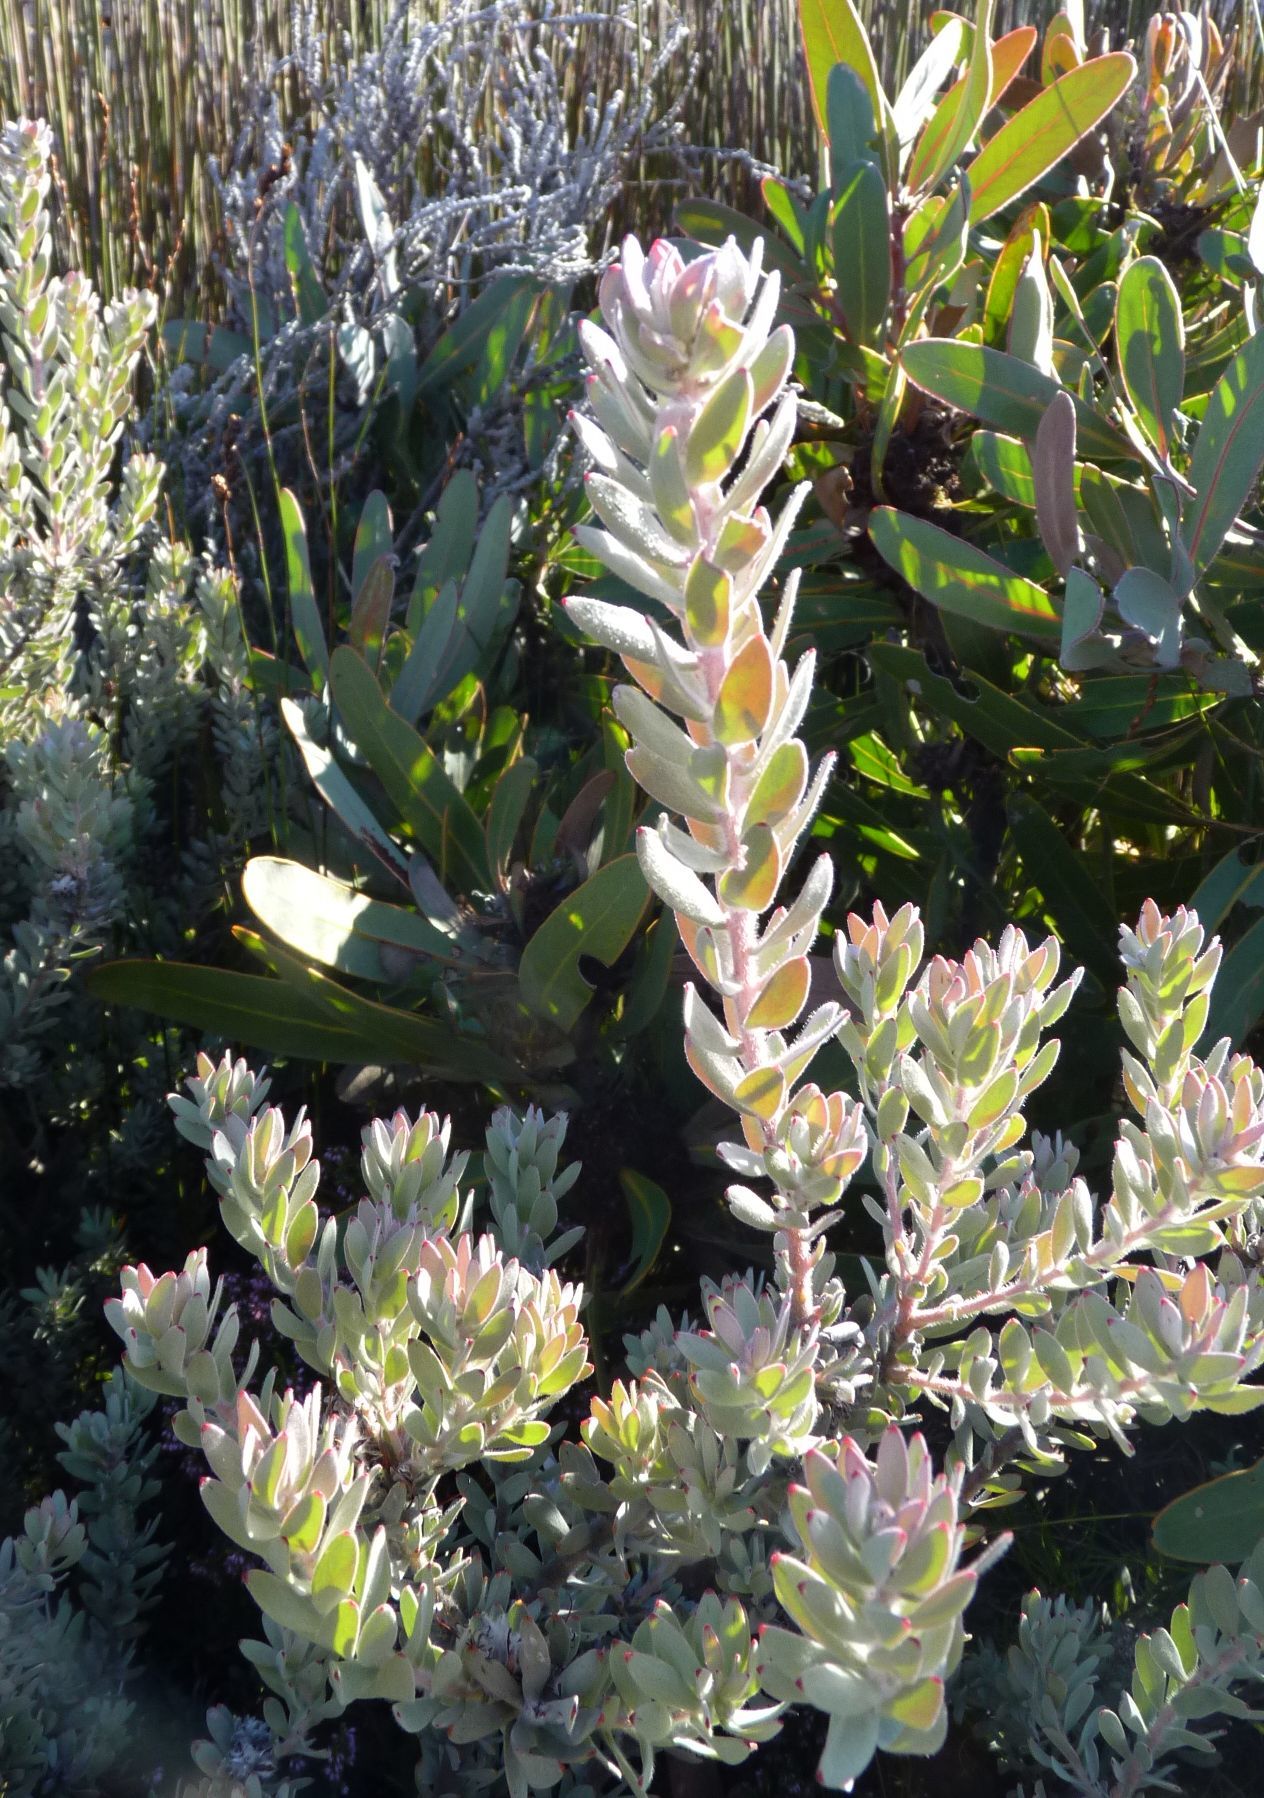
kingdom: Plantae
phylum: Tracheophyta
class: Magnoliopsida
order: Proteales
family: Proteaceae
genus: Leucospermum
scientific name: Leucospermum wittebergense
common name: Swartberg pincushion
